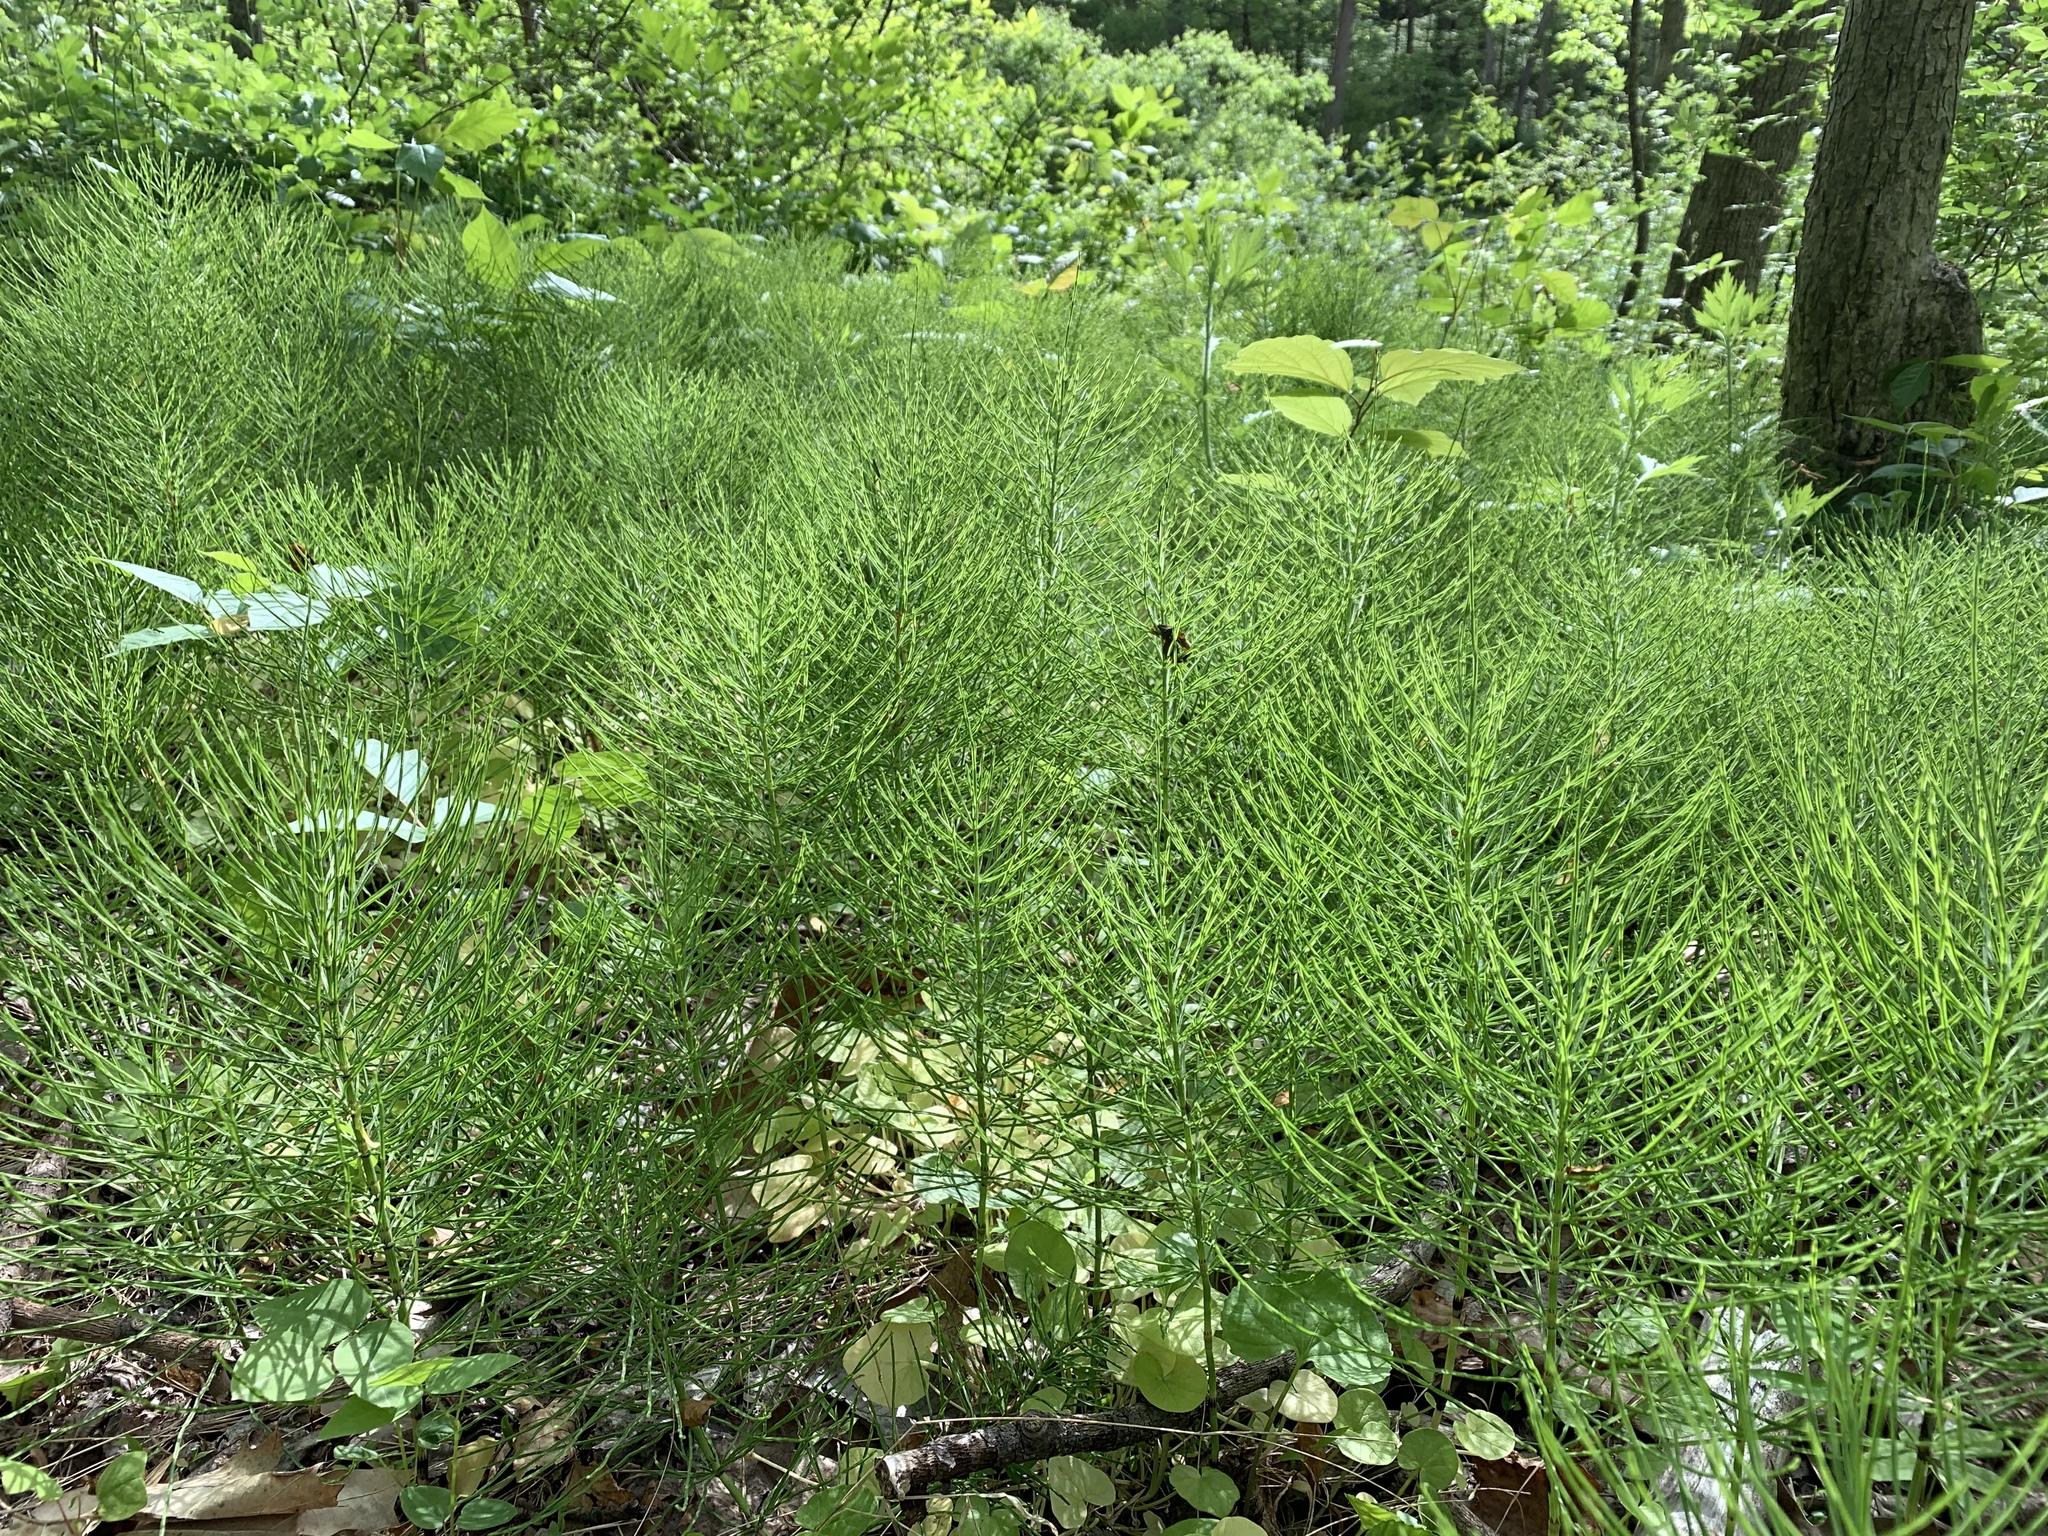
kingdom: Plantae
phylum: Tracheophyta
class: Polypodiopsida
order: Equisetales
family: Equisetaceae
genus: Equisetum
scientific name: Equisetum arvense
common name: Field horsetail
